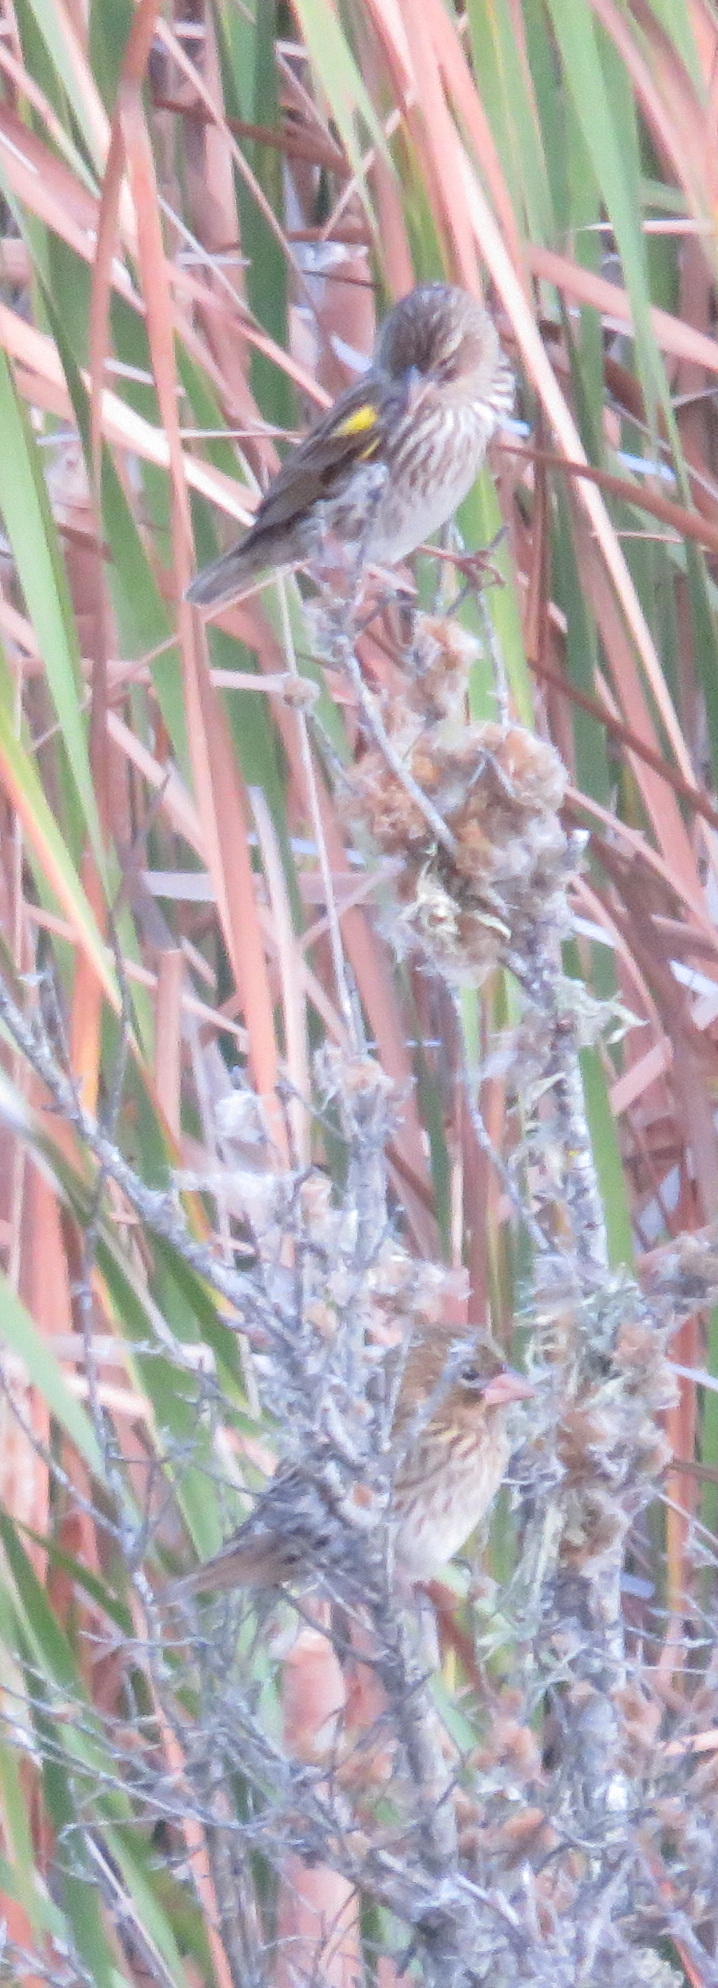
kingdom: Animalia
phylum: Chordata
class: Aves
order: Passeriformes
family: Ploceidae
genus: Euplectes
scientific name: Euplectes capensis
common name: Yellow bishop
